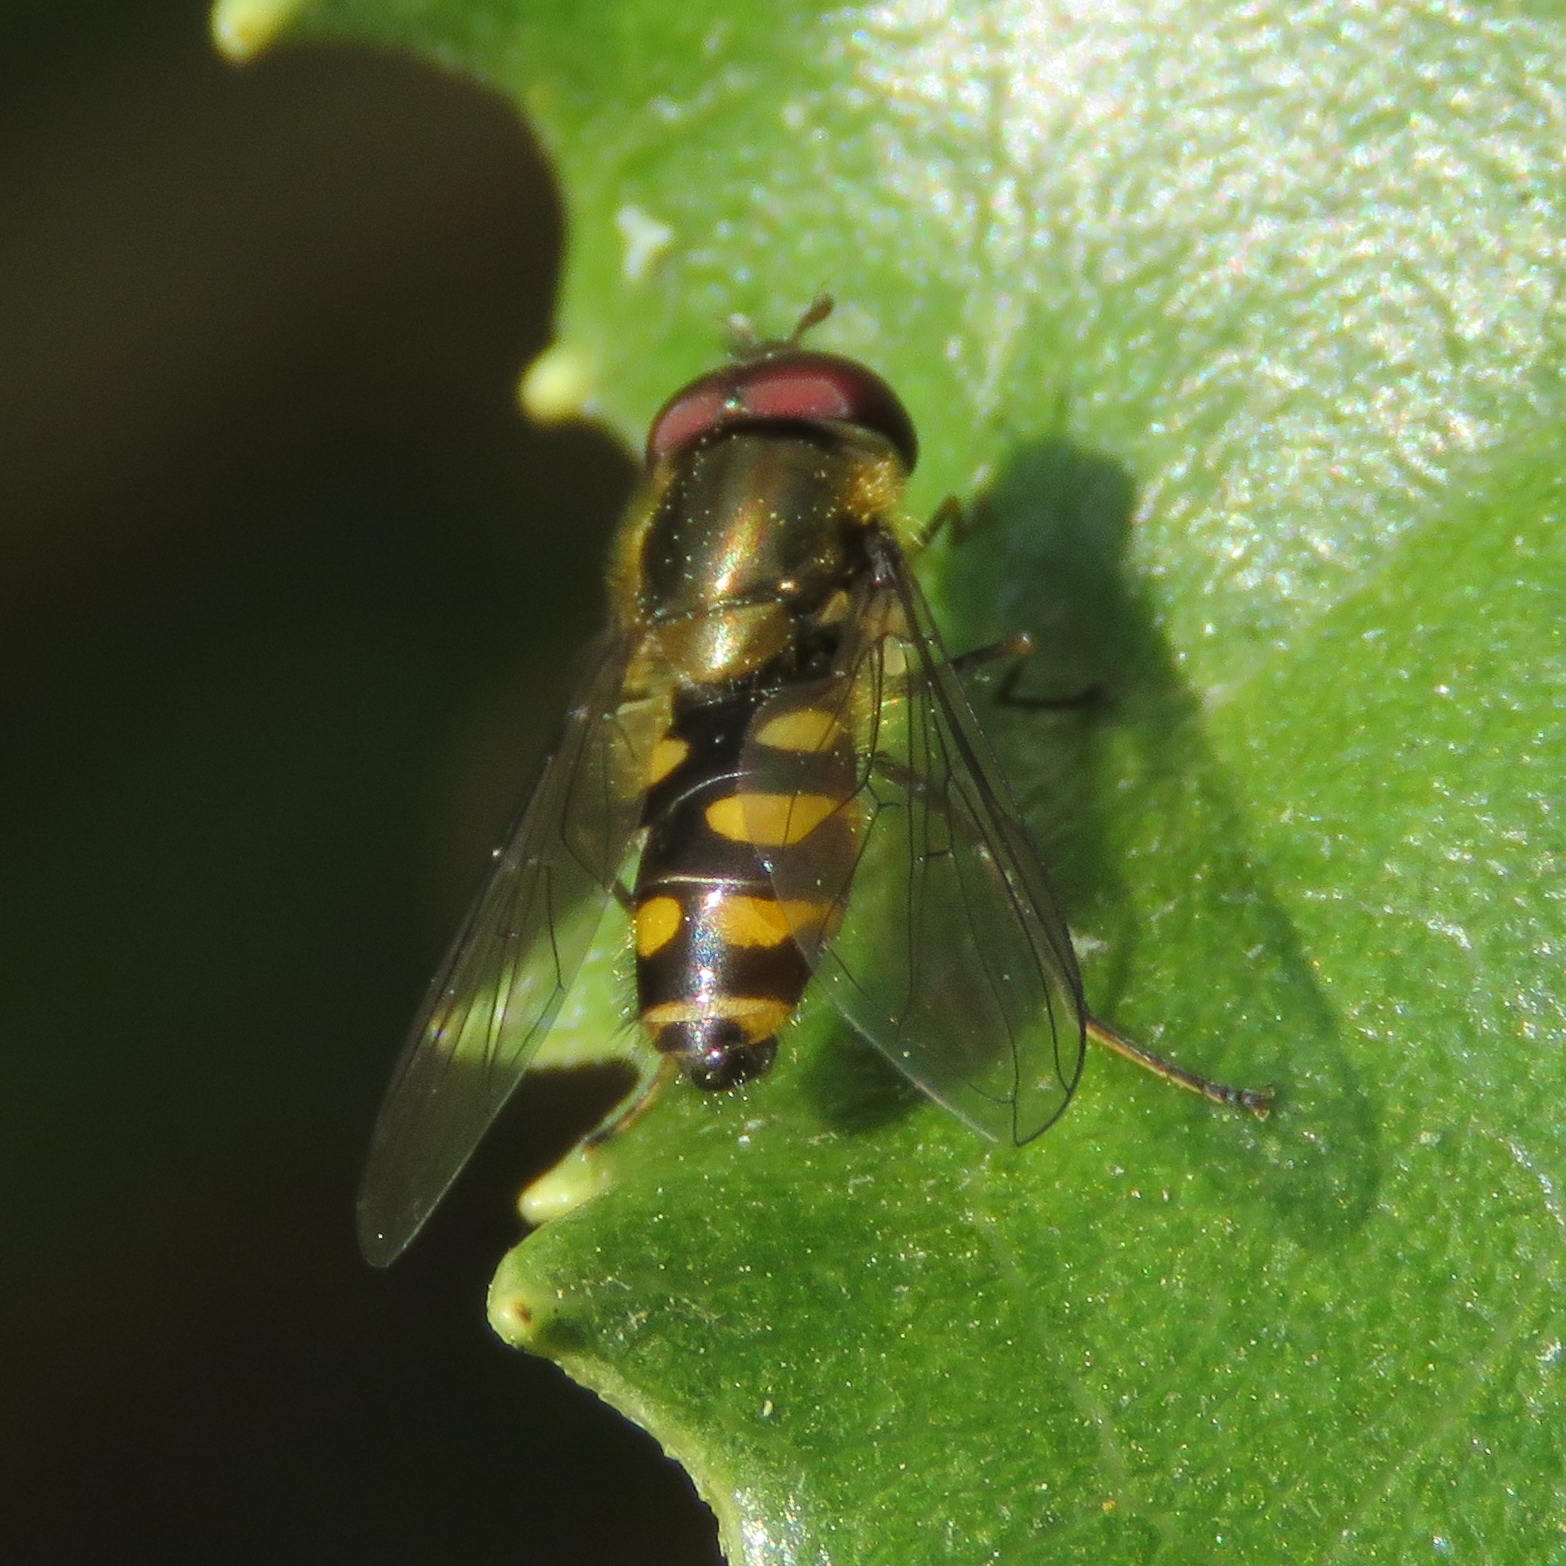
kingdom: Animalia
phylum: Arthropoda
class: Insecta
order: Diptera
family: Syrphidae
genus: Parasyrphus
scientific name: Parasyrphus punctulatus
